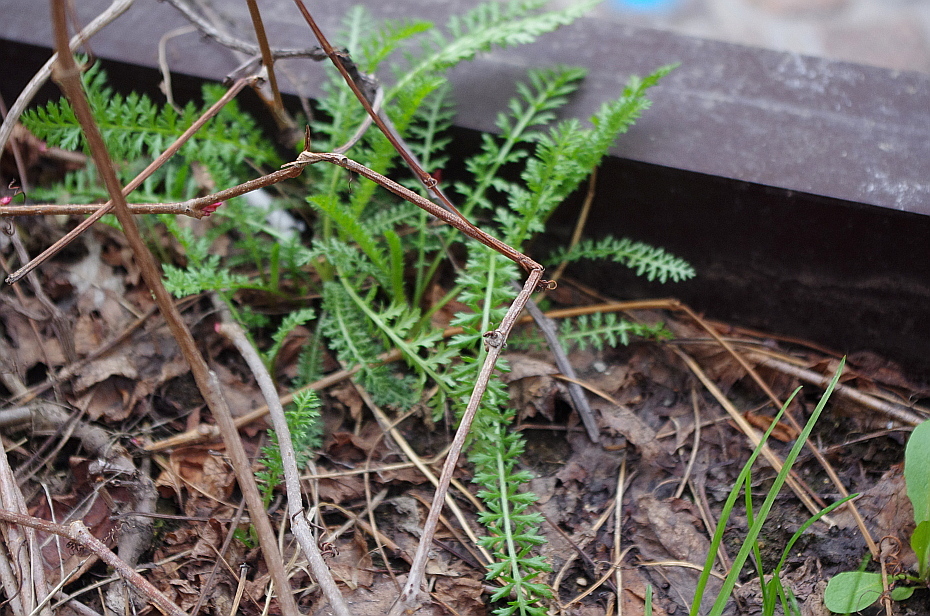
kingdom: Plantae
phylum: Tracheophyta
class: Magnoliopsida
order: Asterales
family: Asteraceae
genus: Achillea
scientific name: Achillea millefolium
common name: Yarrow
